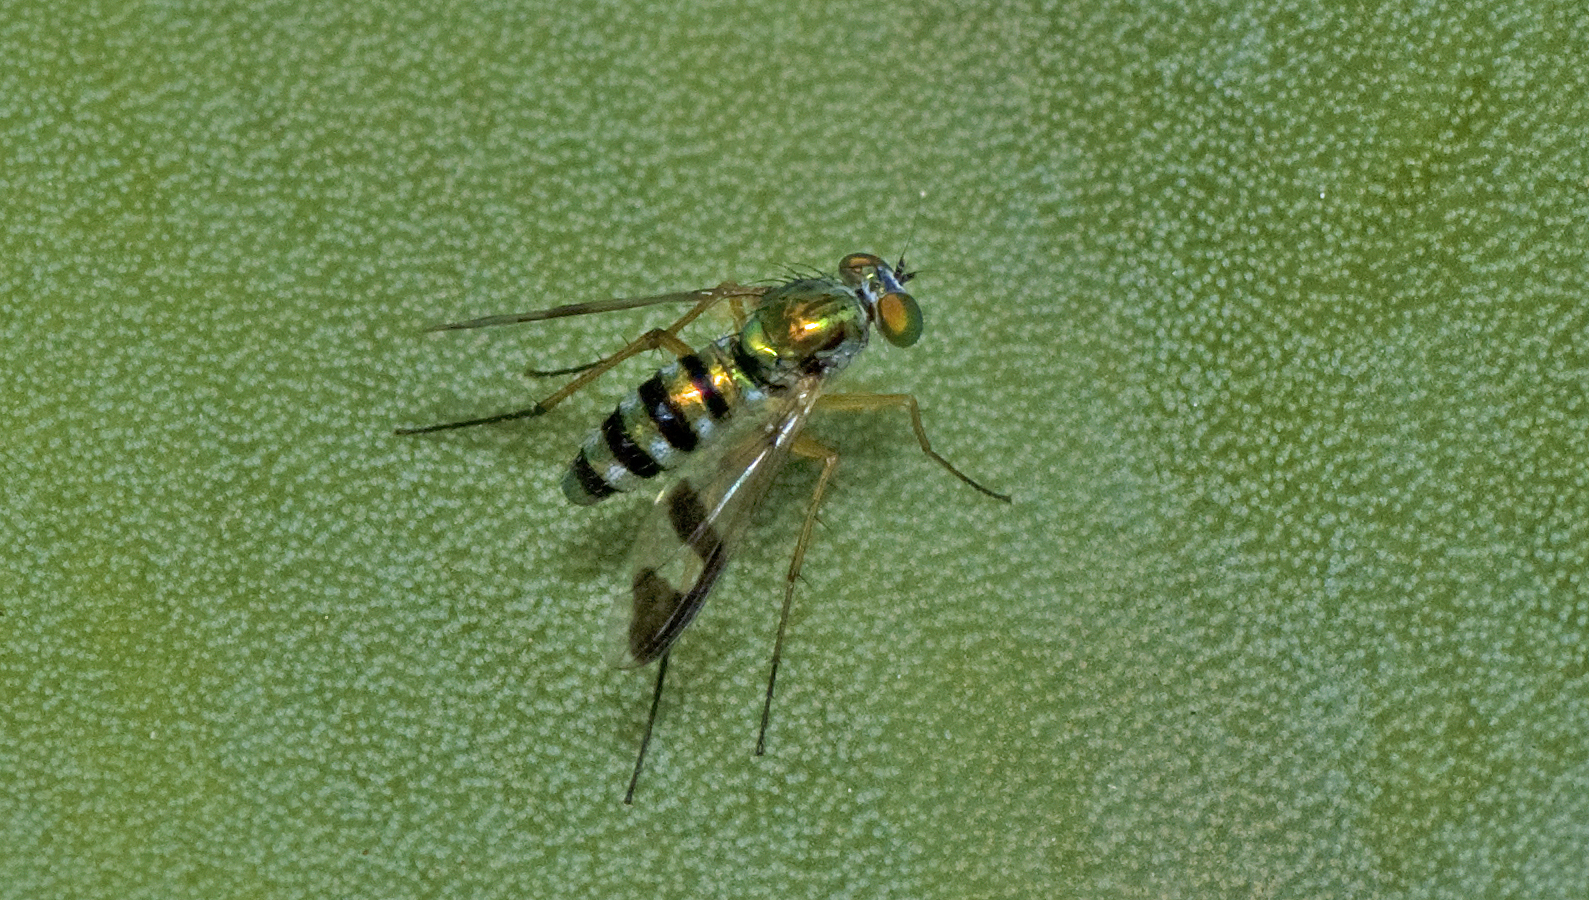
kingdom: Animalia
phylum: Arthropoda
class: Insecta
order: Diptera
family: Dolichopodidae
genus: Austrosciapus
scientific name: Austrosciapus
